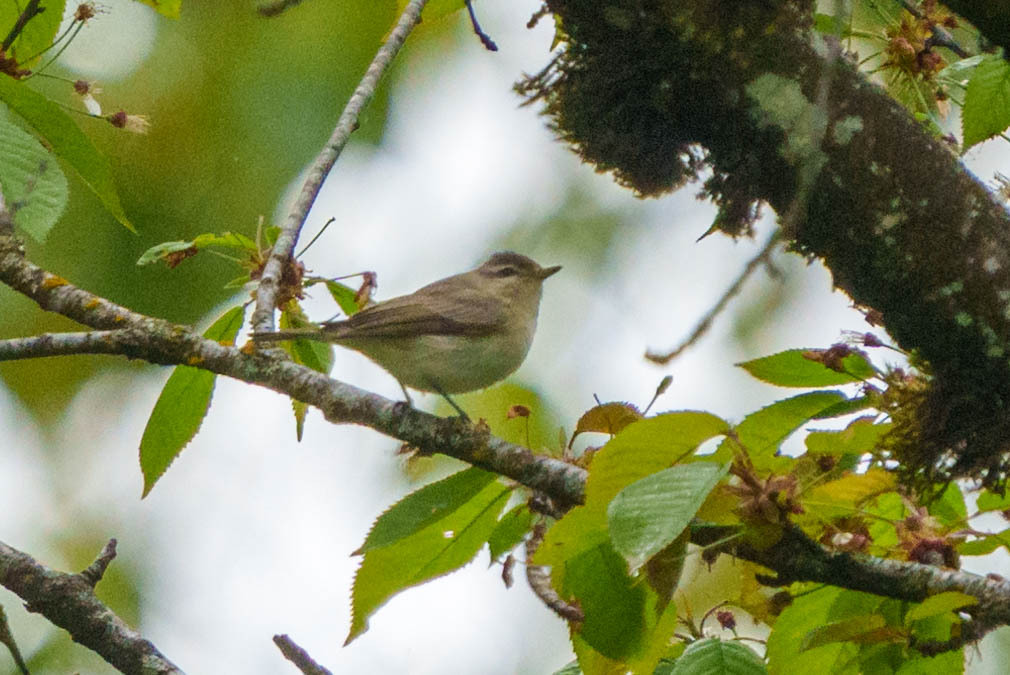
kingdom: Animalia
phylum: Chordata
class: Aves
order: Passeriformes
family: Vireonidae
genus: Vireo
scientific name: Vireo gilvus
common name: Warbling vireo
